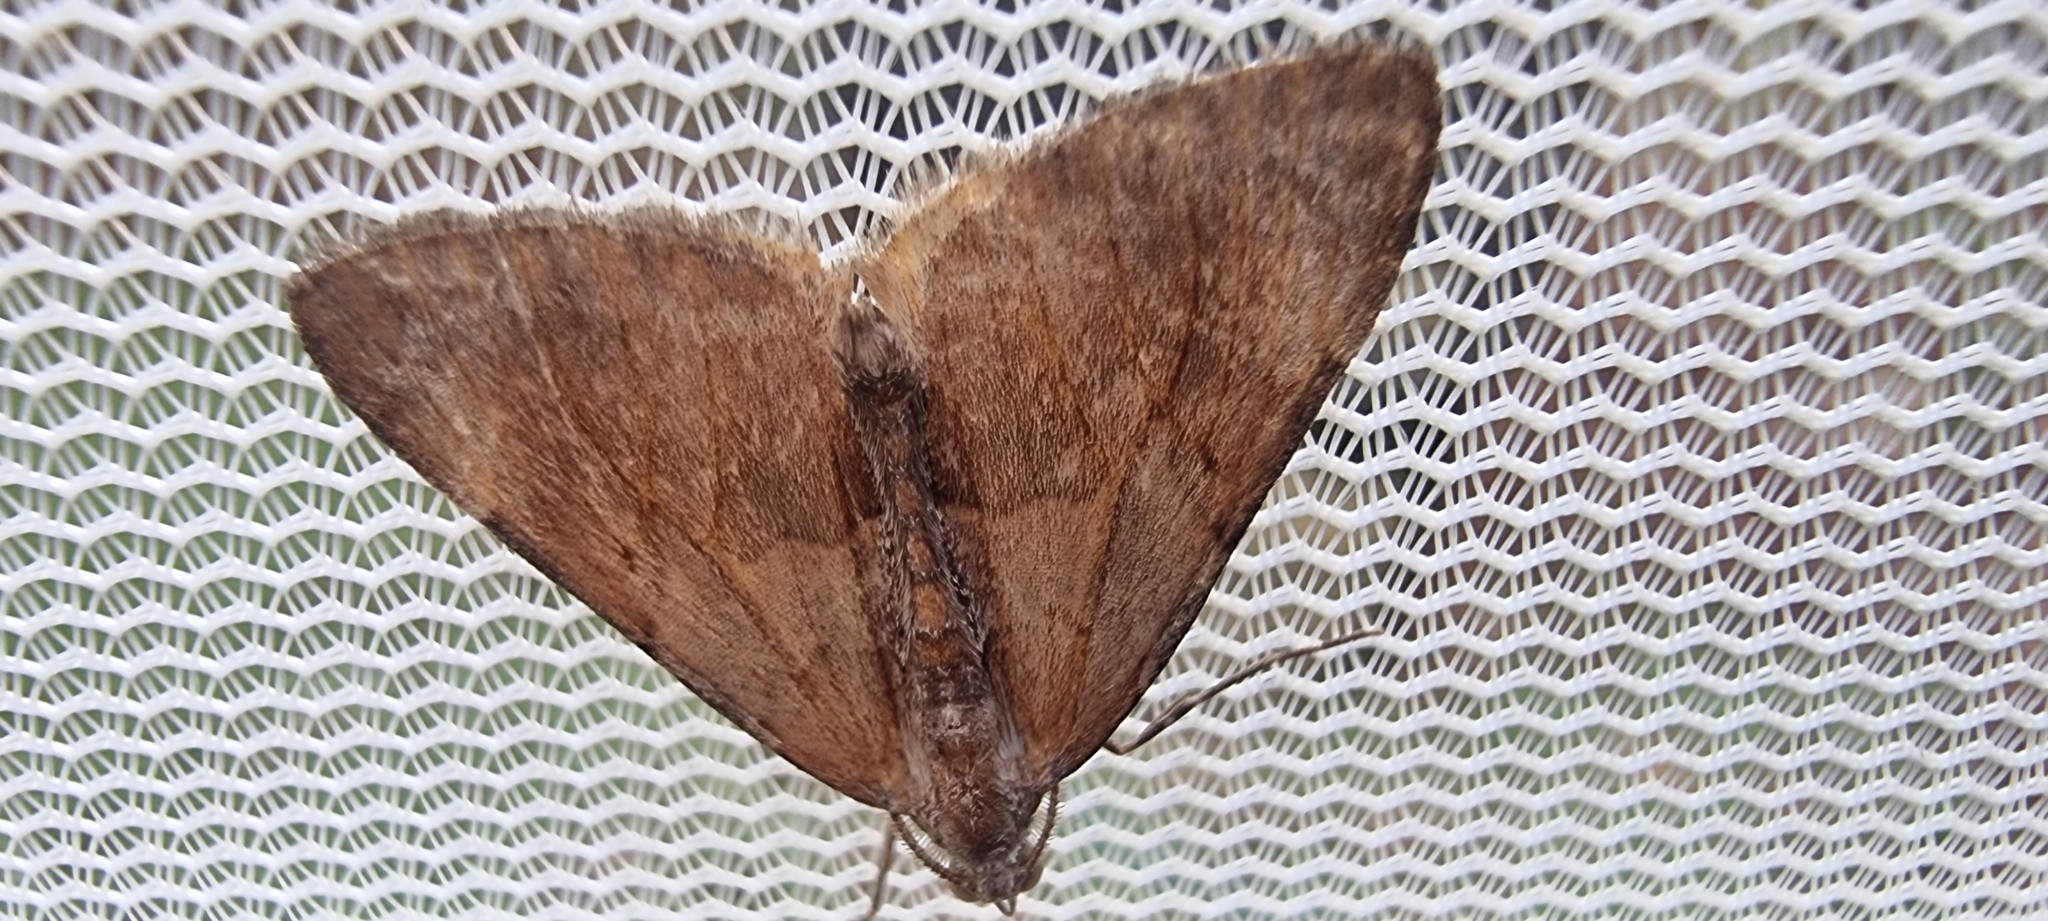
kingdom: Animalia
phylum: Arthropoda
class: Insecta
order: Lepidoptera
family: Geometridae
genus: Pennithera
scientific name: Pennithera firmata
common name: Pine carpet
